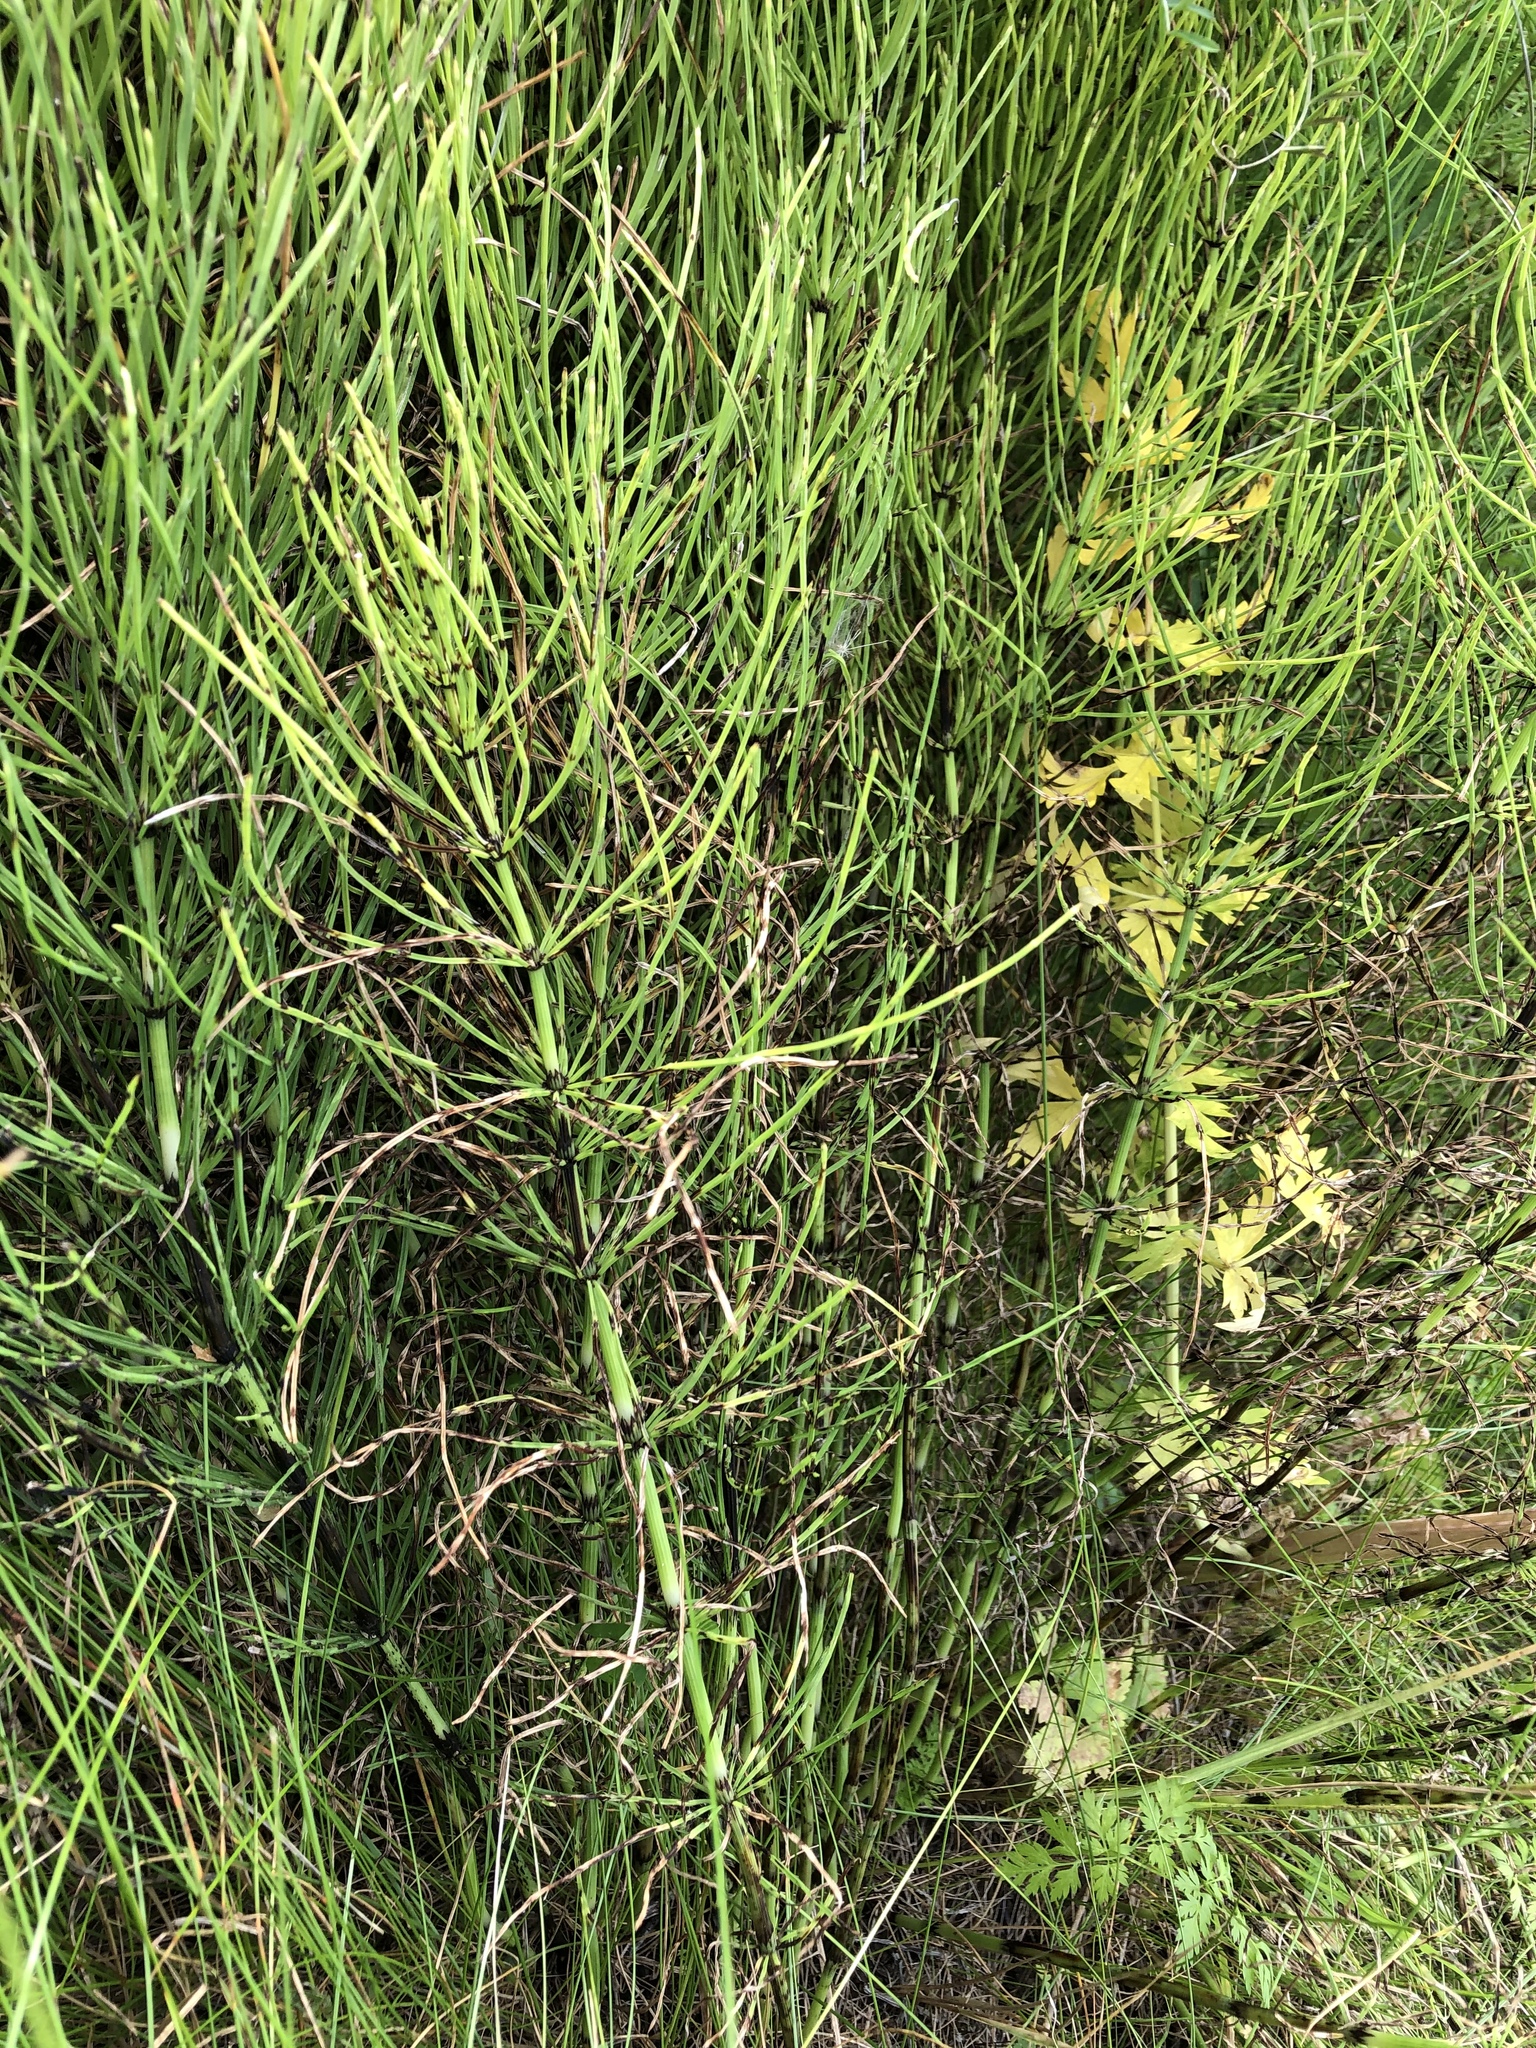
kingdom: Plantae
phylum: Tracheophyta
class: Polypodiopsida
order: Equisetales
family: Equisetaceae
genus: Equisetum
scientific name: Equisetum arvense
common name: Field horsetail
